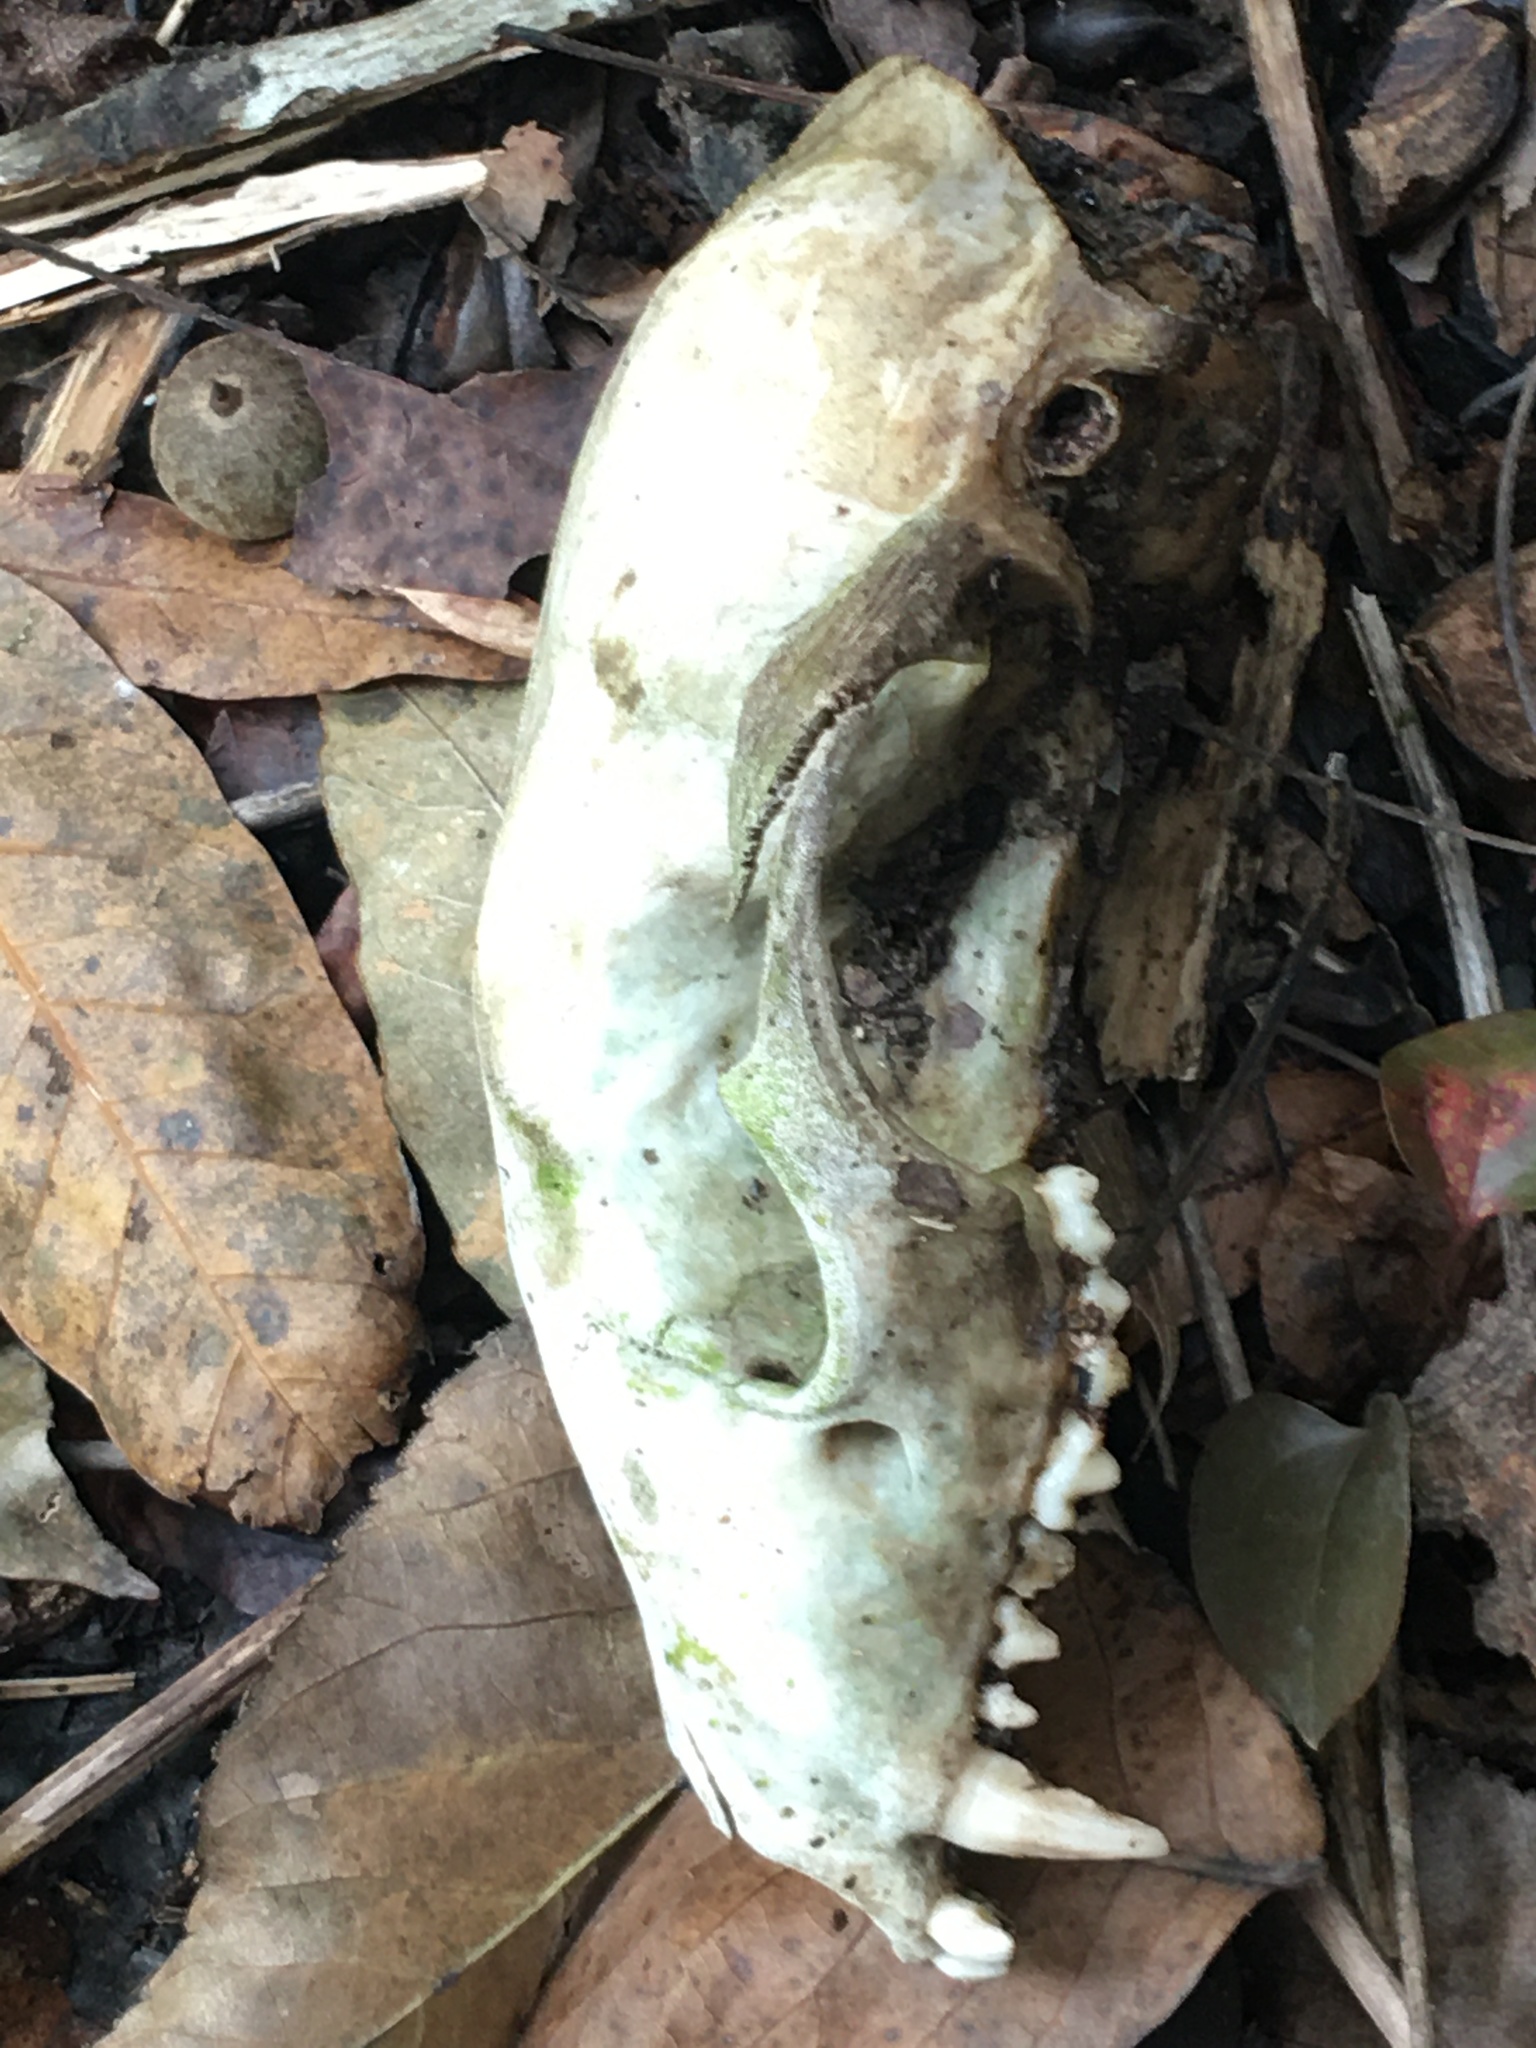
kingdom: Animalia
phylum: Chordata
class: Mammalia
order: Carnivora
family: Procyonidae
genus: Procyon
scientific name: Procyon lotor
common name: Raccoon
